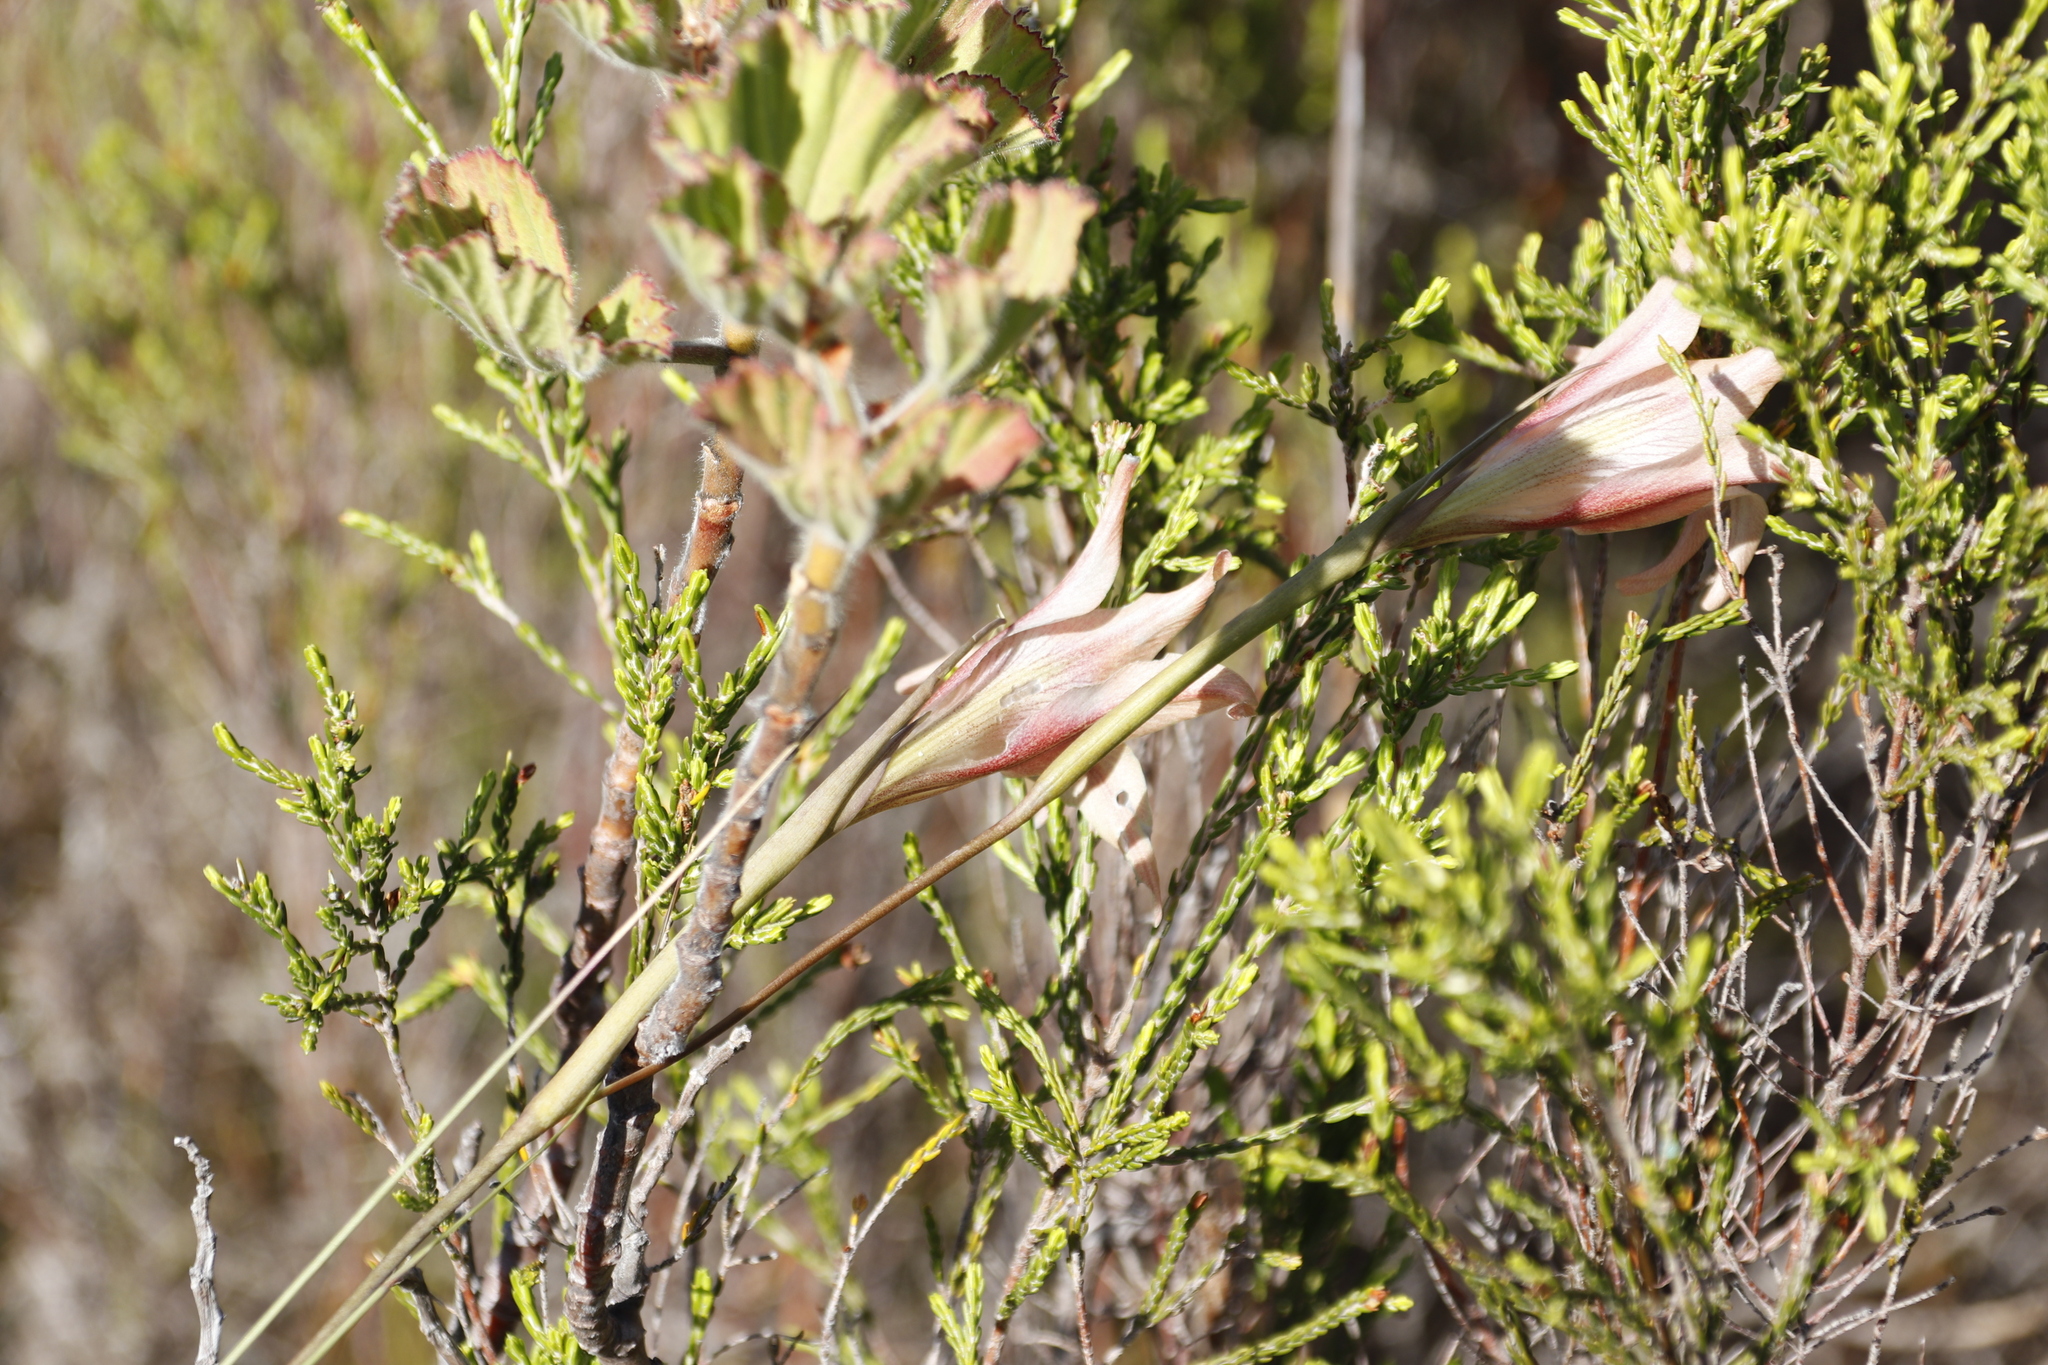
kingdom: Plantae
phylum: Tracheophyta
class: Liliopsida
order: Asparagales
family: Iridaceae
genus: Gladiolus
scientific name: Gladiolus liliaceus
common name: Large brown afrikaner
